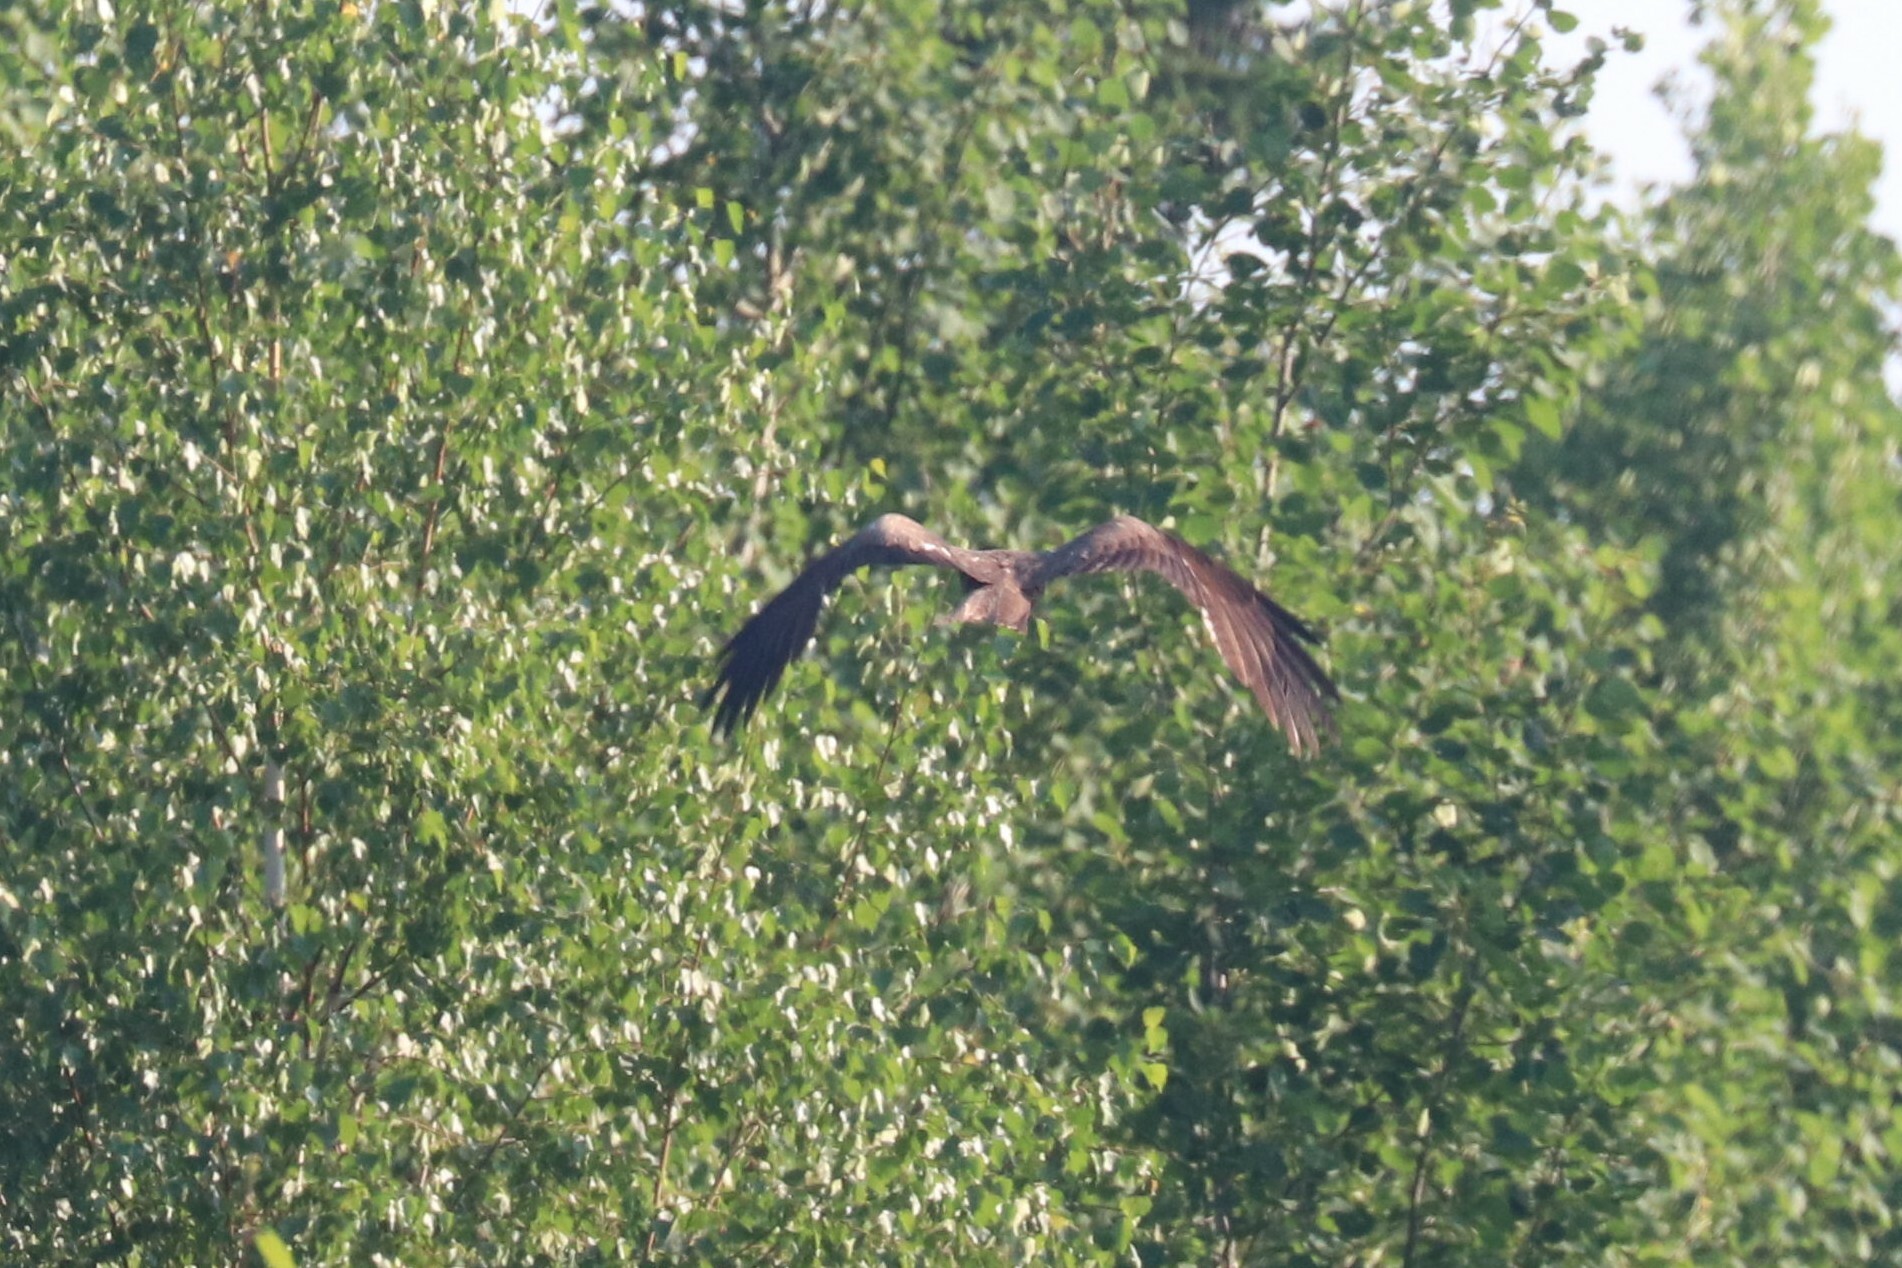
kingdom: Animalia
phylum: Chordata
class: Aves
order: Accipitriformes
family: Accipitridae
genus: Milvus
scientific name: Milvus migrans
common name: Black kite
